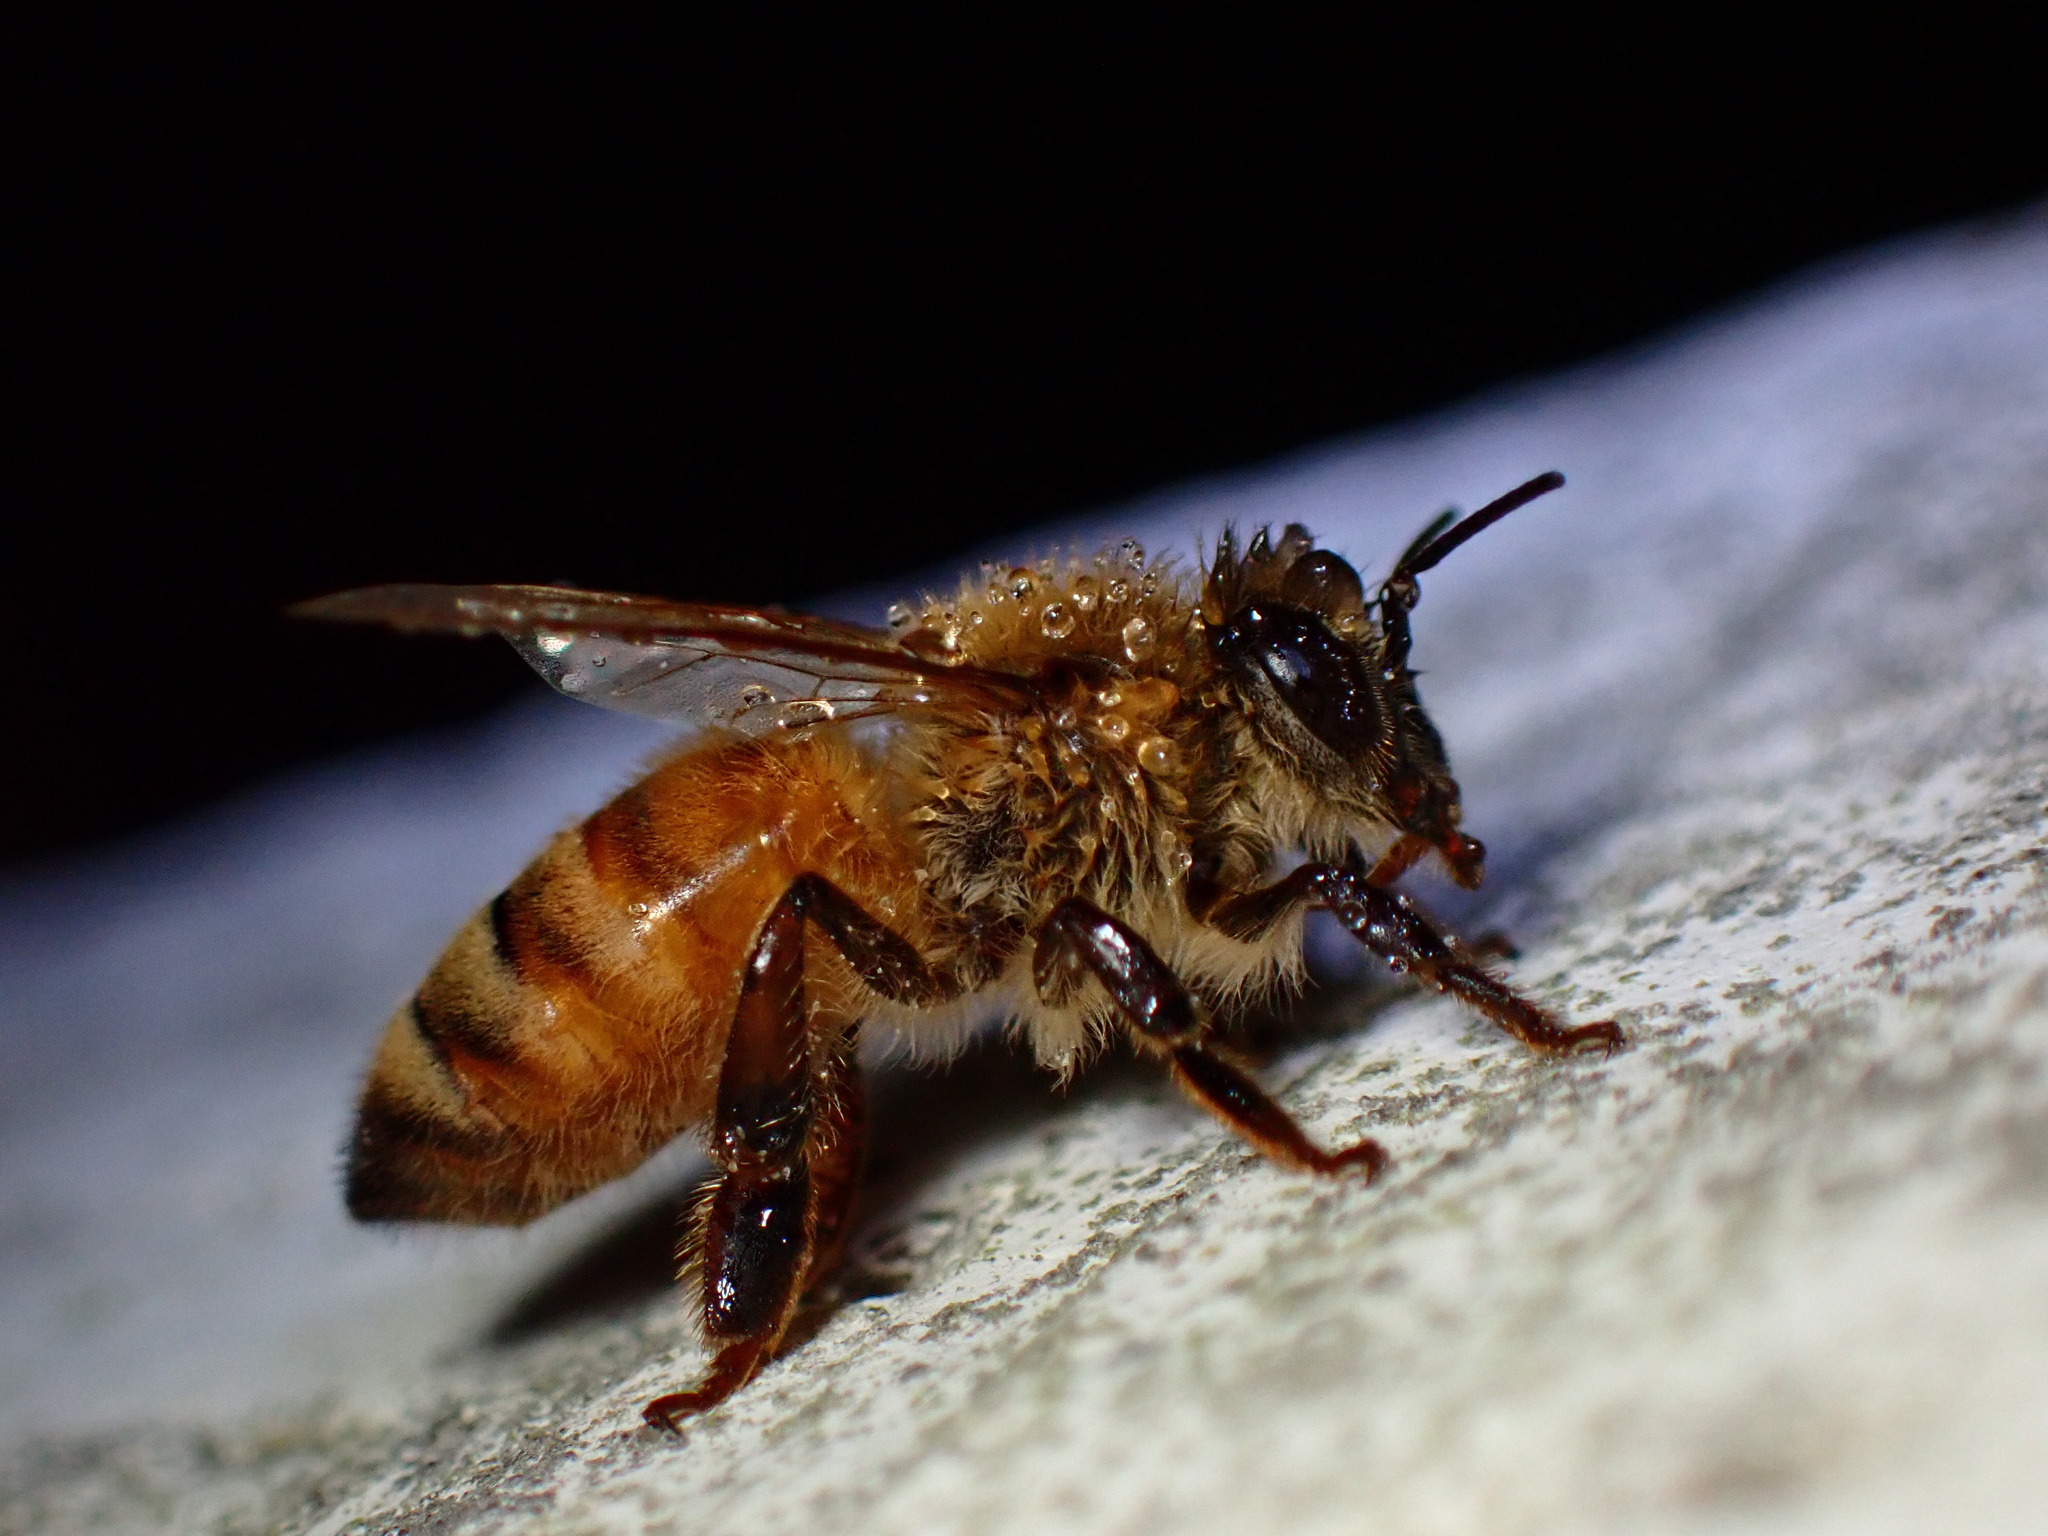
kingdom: Animalia
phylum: Arthropoda
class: Insecta
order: Hymenoptera
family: Apidae
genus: Apis
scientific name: Apis mellifera
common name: Honey bee
